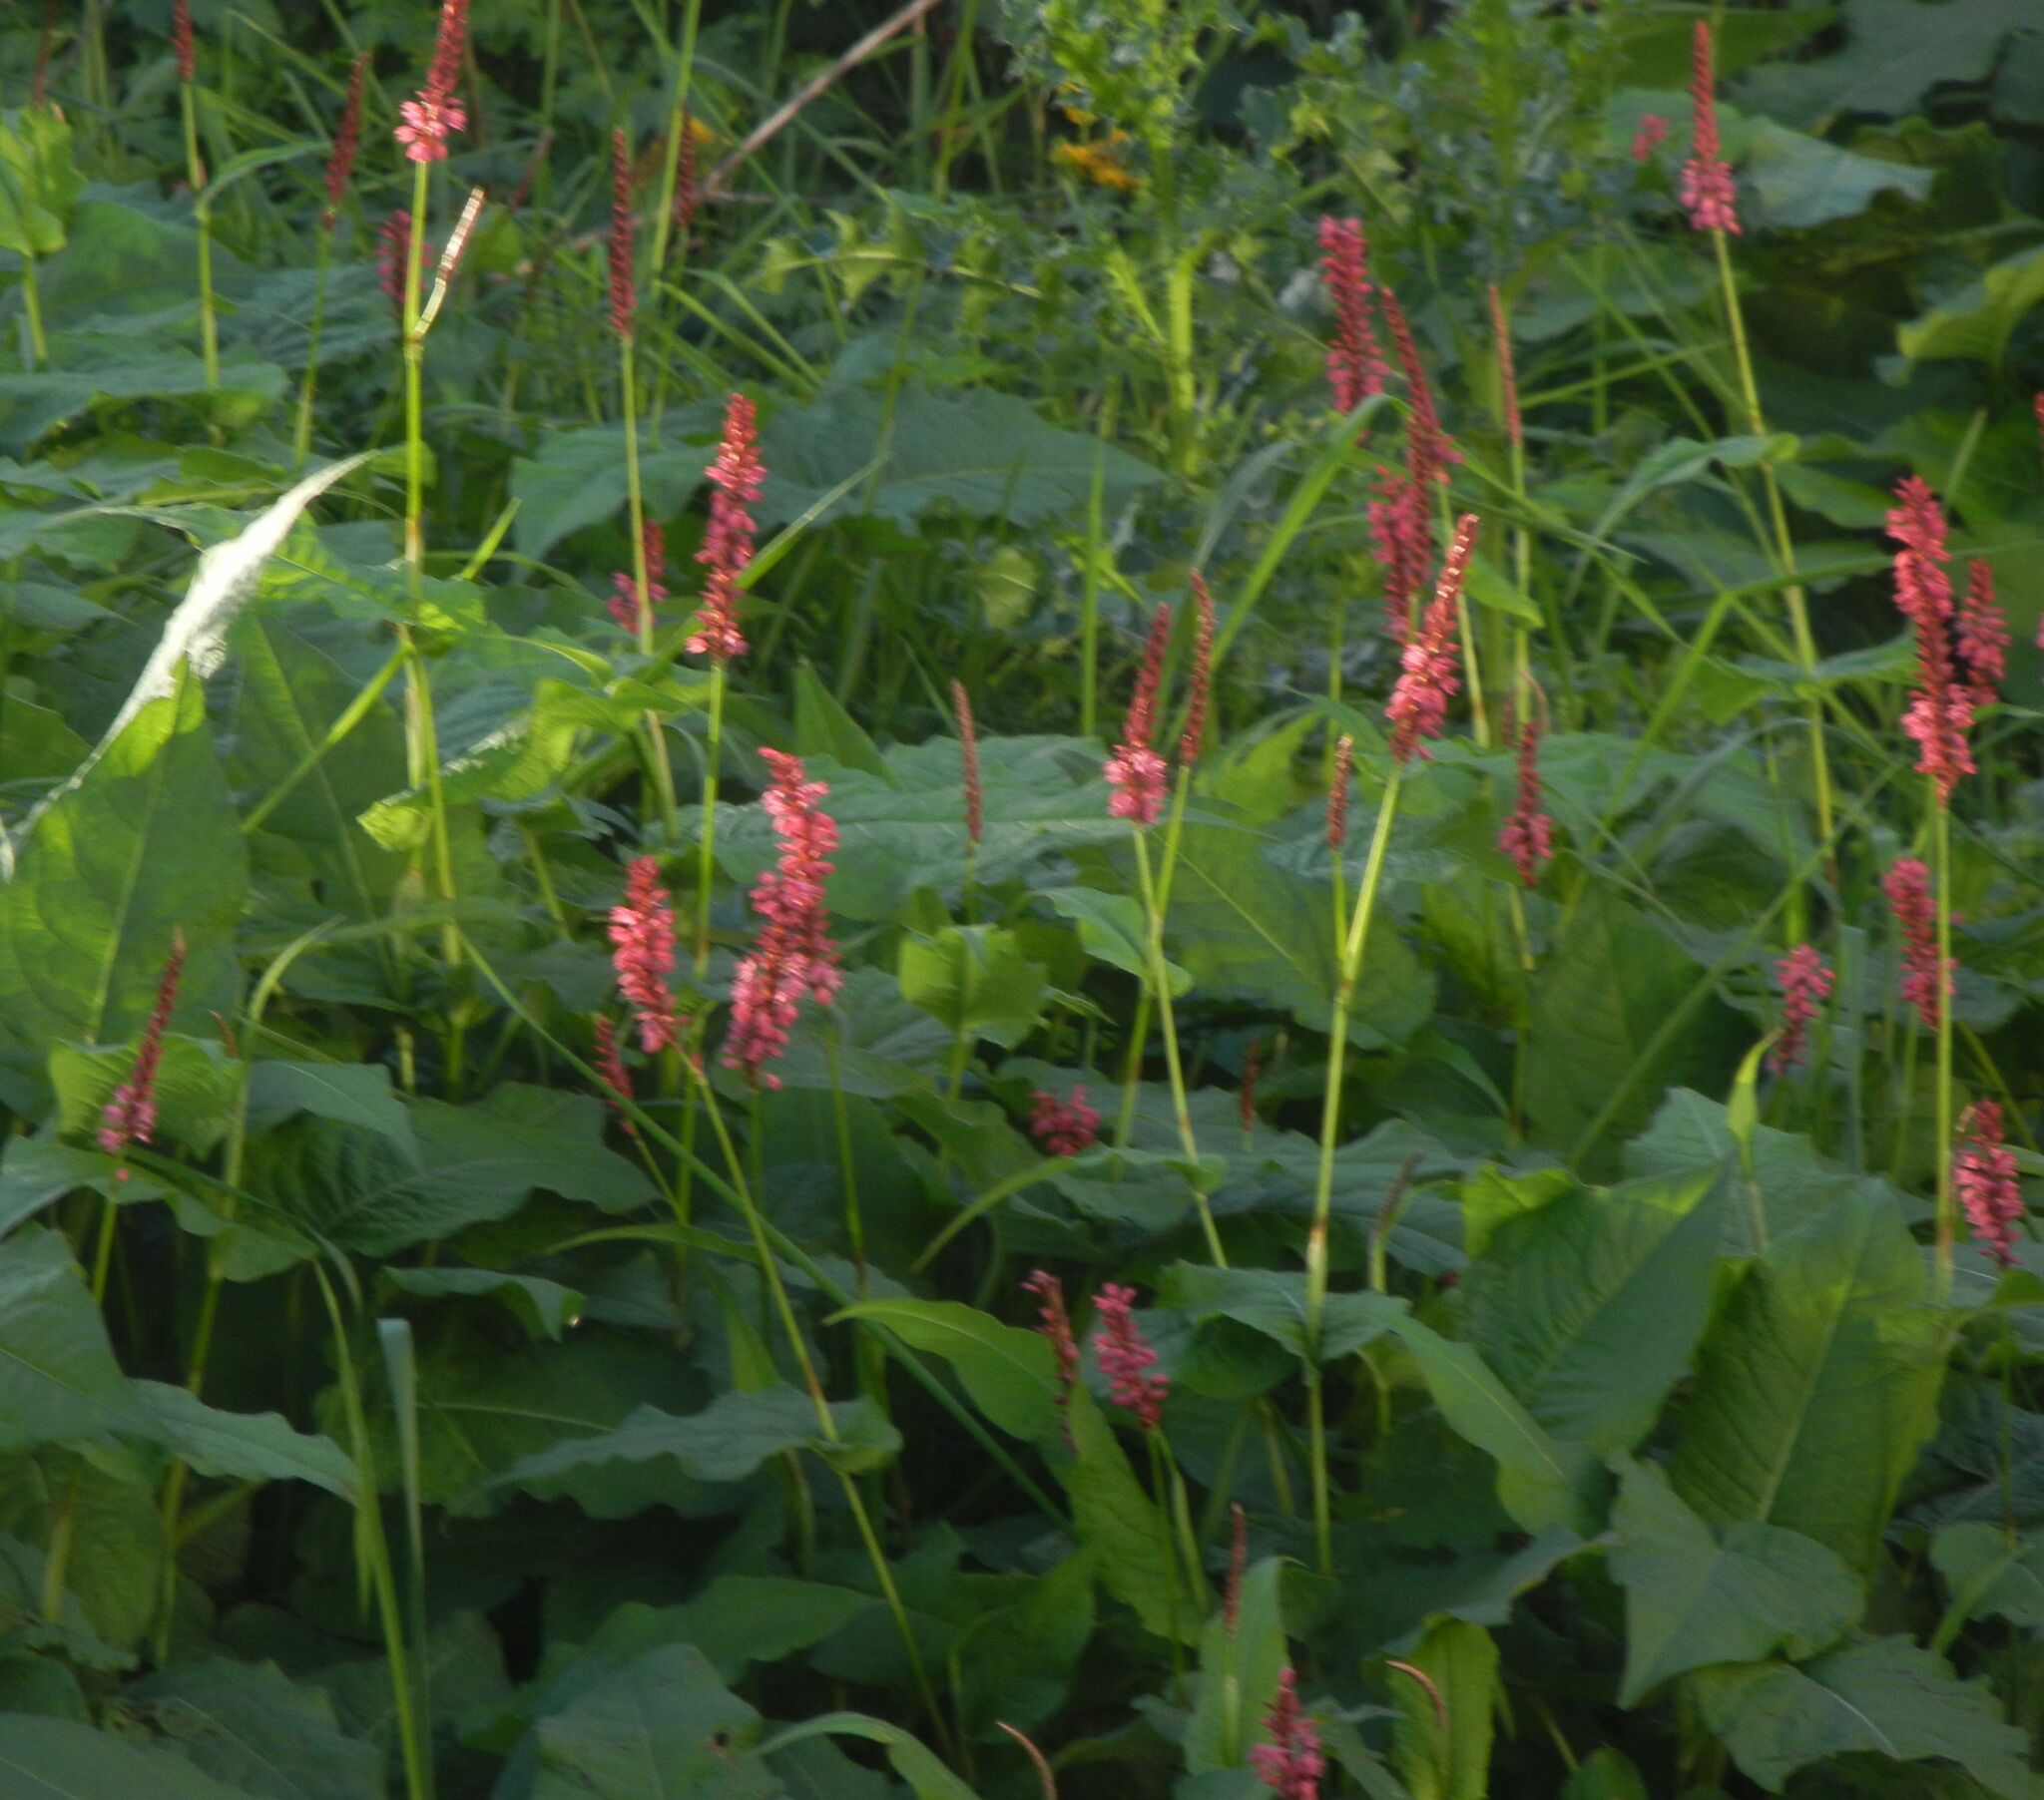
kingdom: Plantae
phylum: Tracheophyta
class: Magnoliopsida
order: Caryophyllales
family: Polygonaceae
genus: Bistorta
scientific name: Bistorta amplexicaulis
